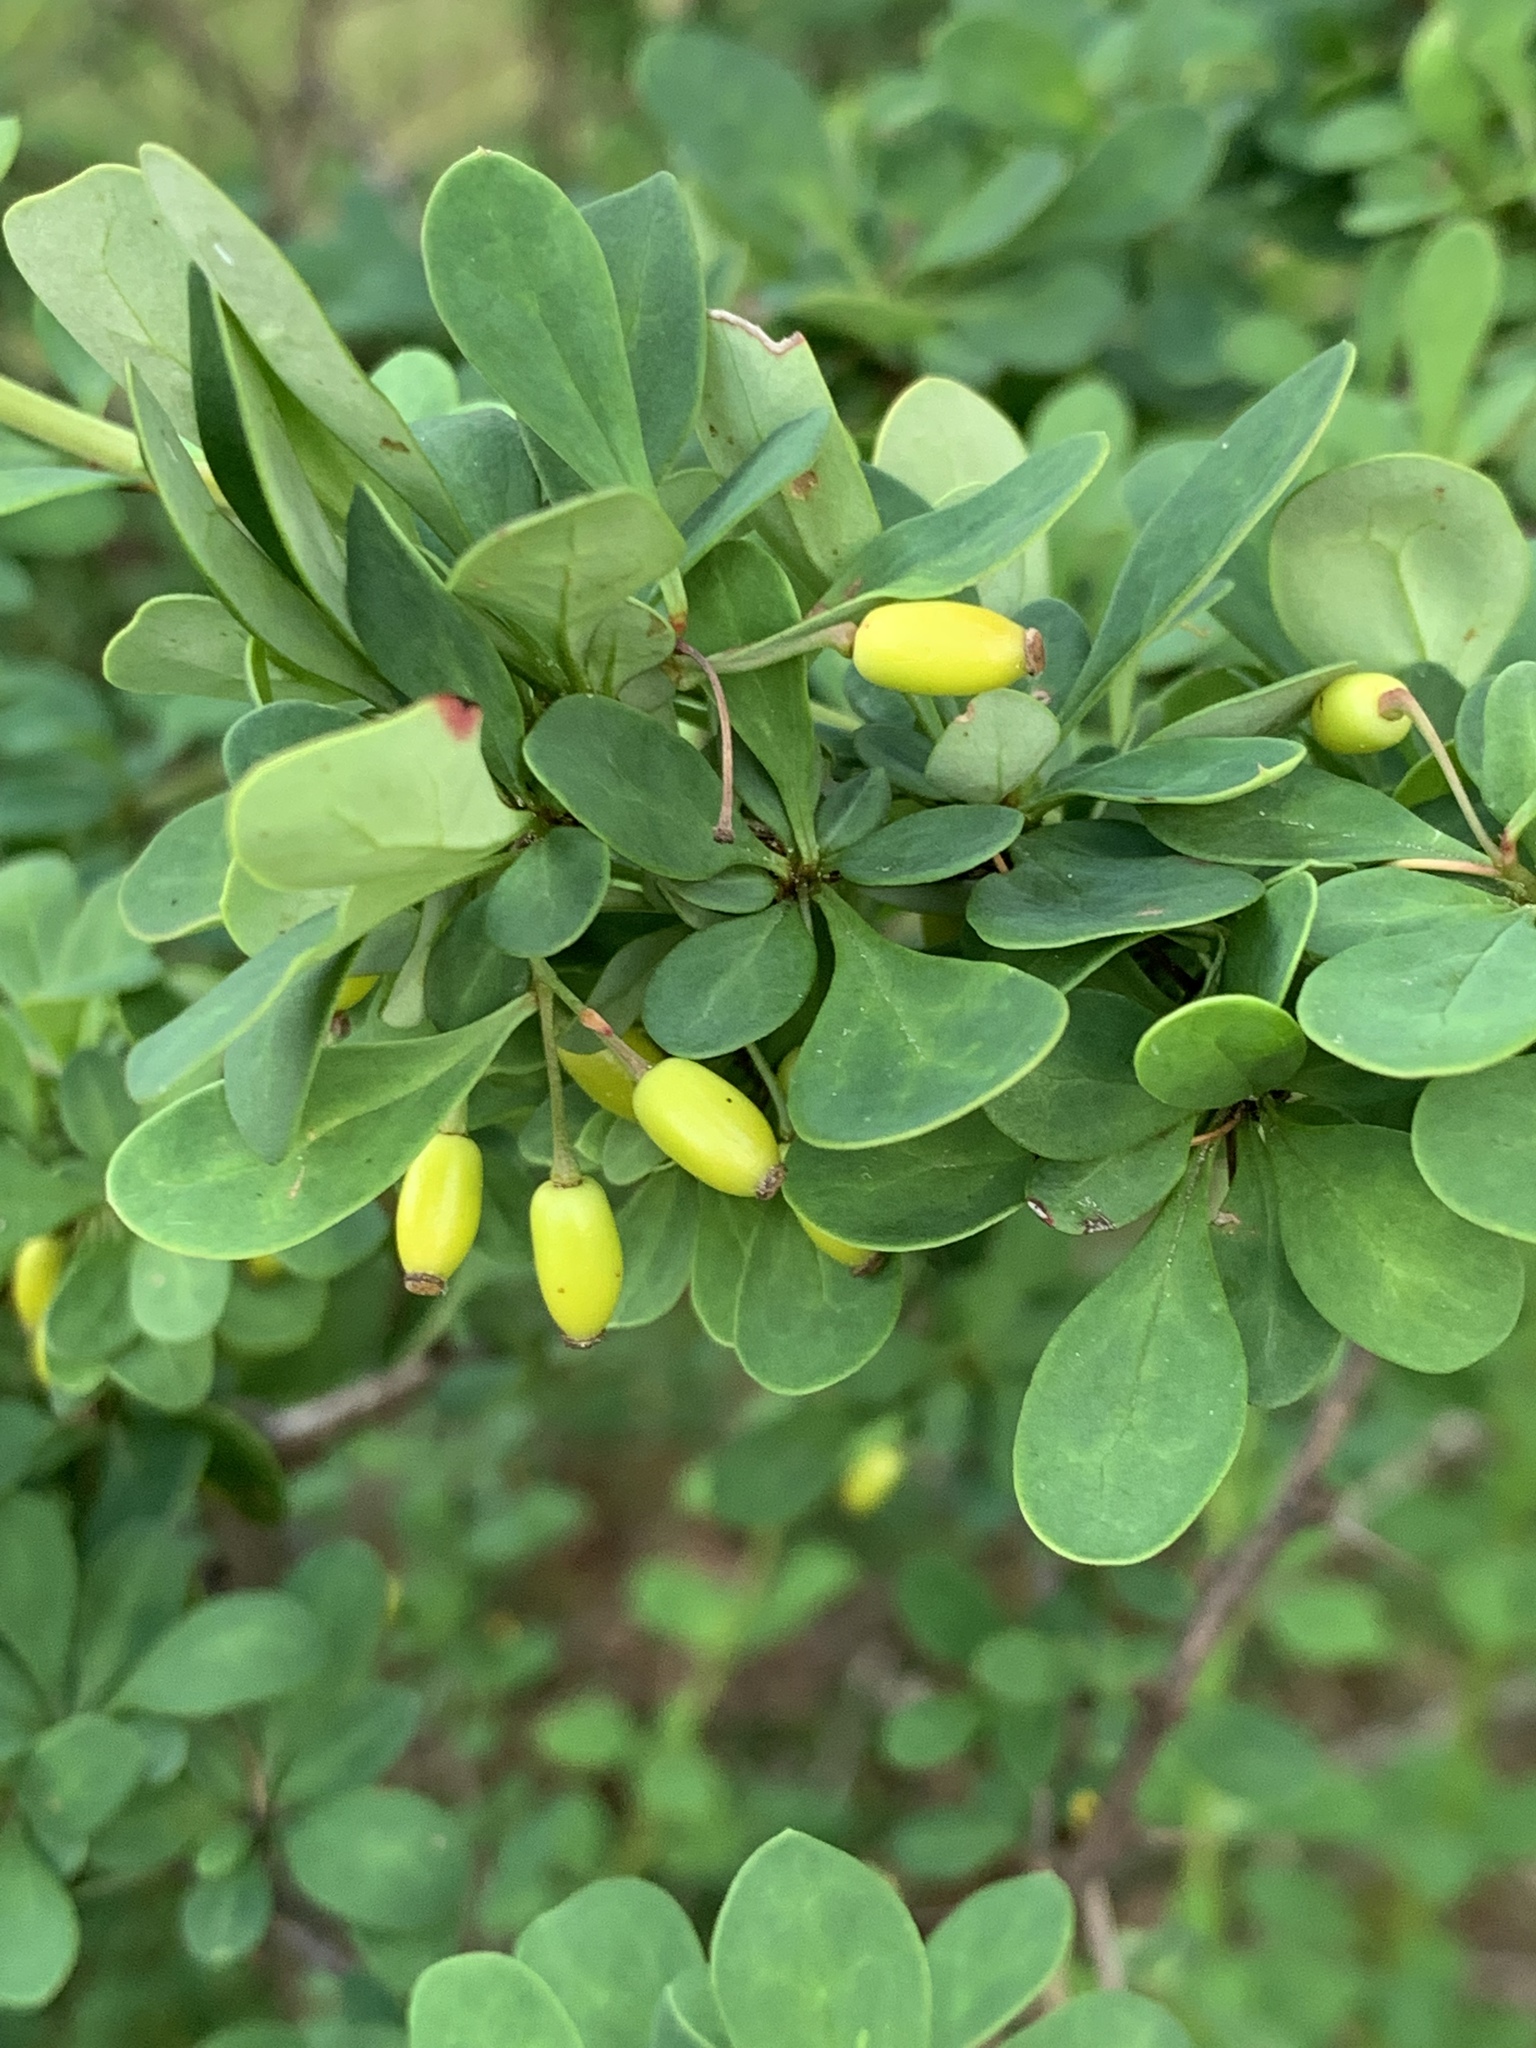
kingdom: Plantae
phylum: Tracheophyta
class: Magnoliopsida
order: Ranunculales
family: Berberidaceae
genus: Berberis
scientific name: Berberis thunbergii
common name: Japanese barberry
